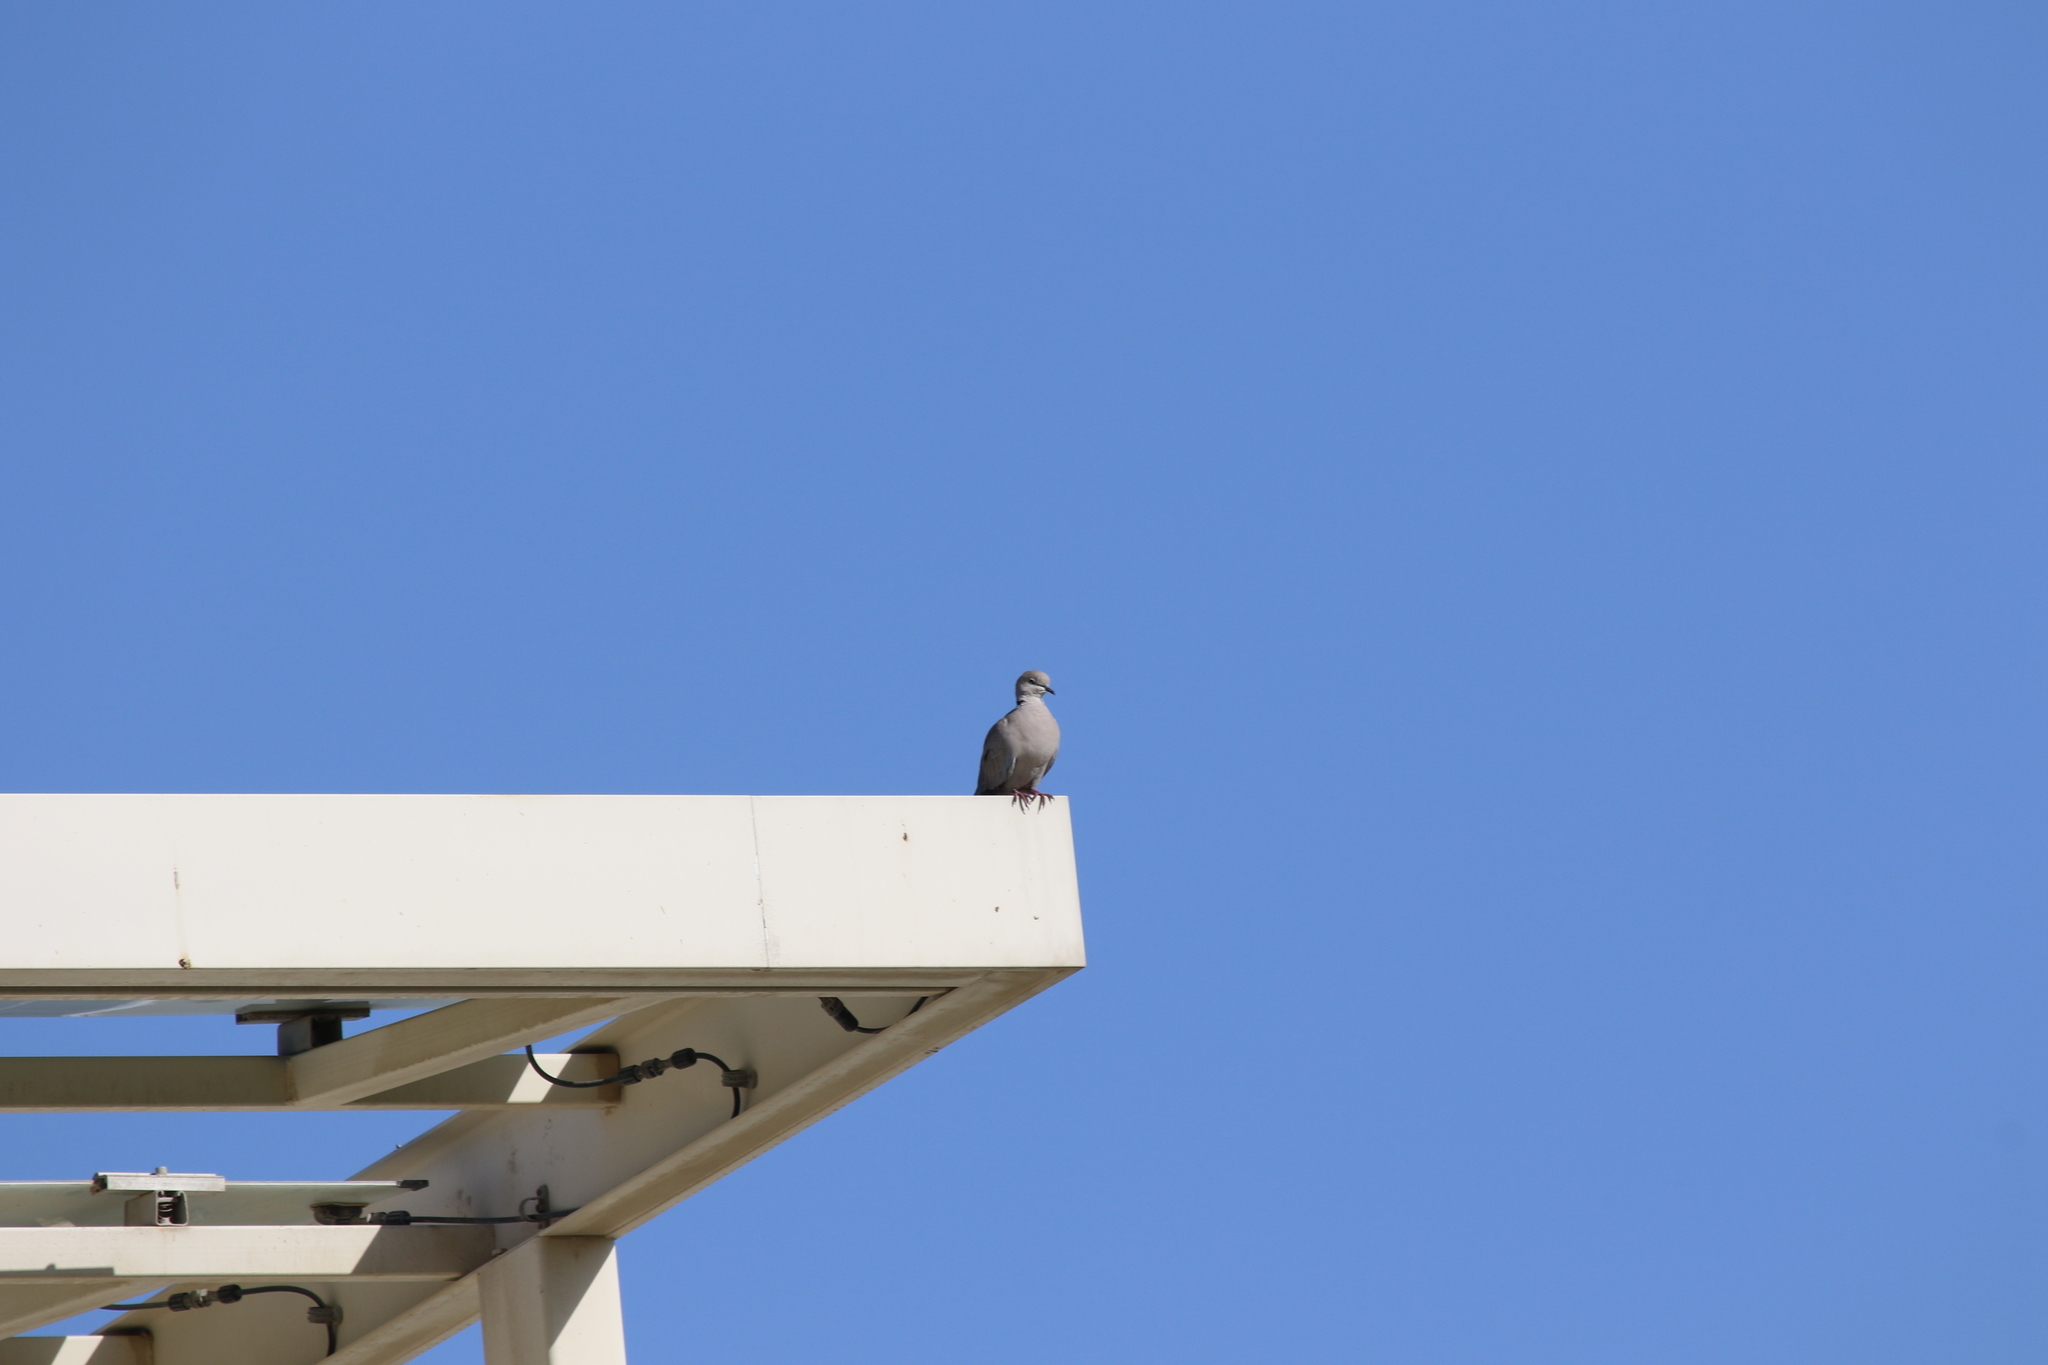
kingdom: Animalia
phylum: Chordata
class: Aves
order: Columbiformes
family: Columbidae
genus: Streptopelia
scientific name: Streptopelia decaocto
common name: Eurasian collared dove
